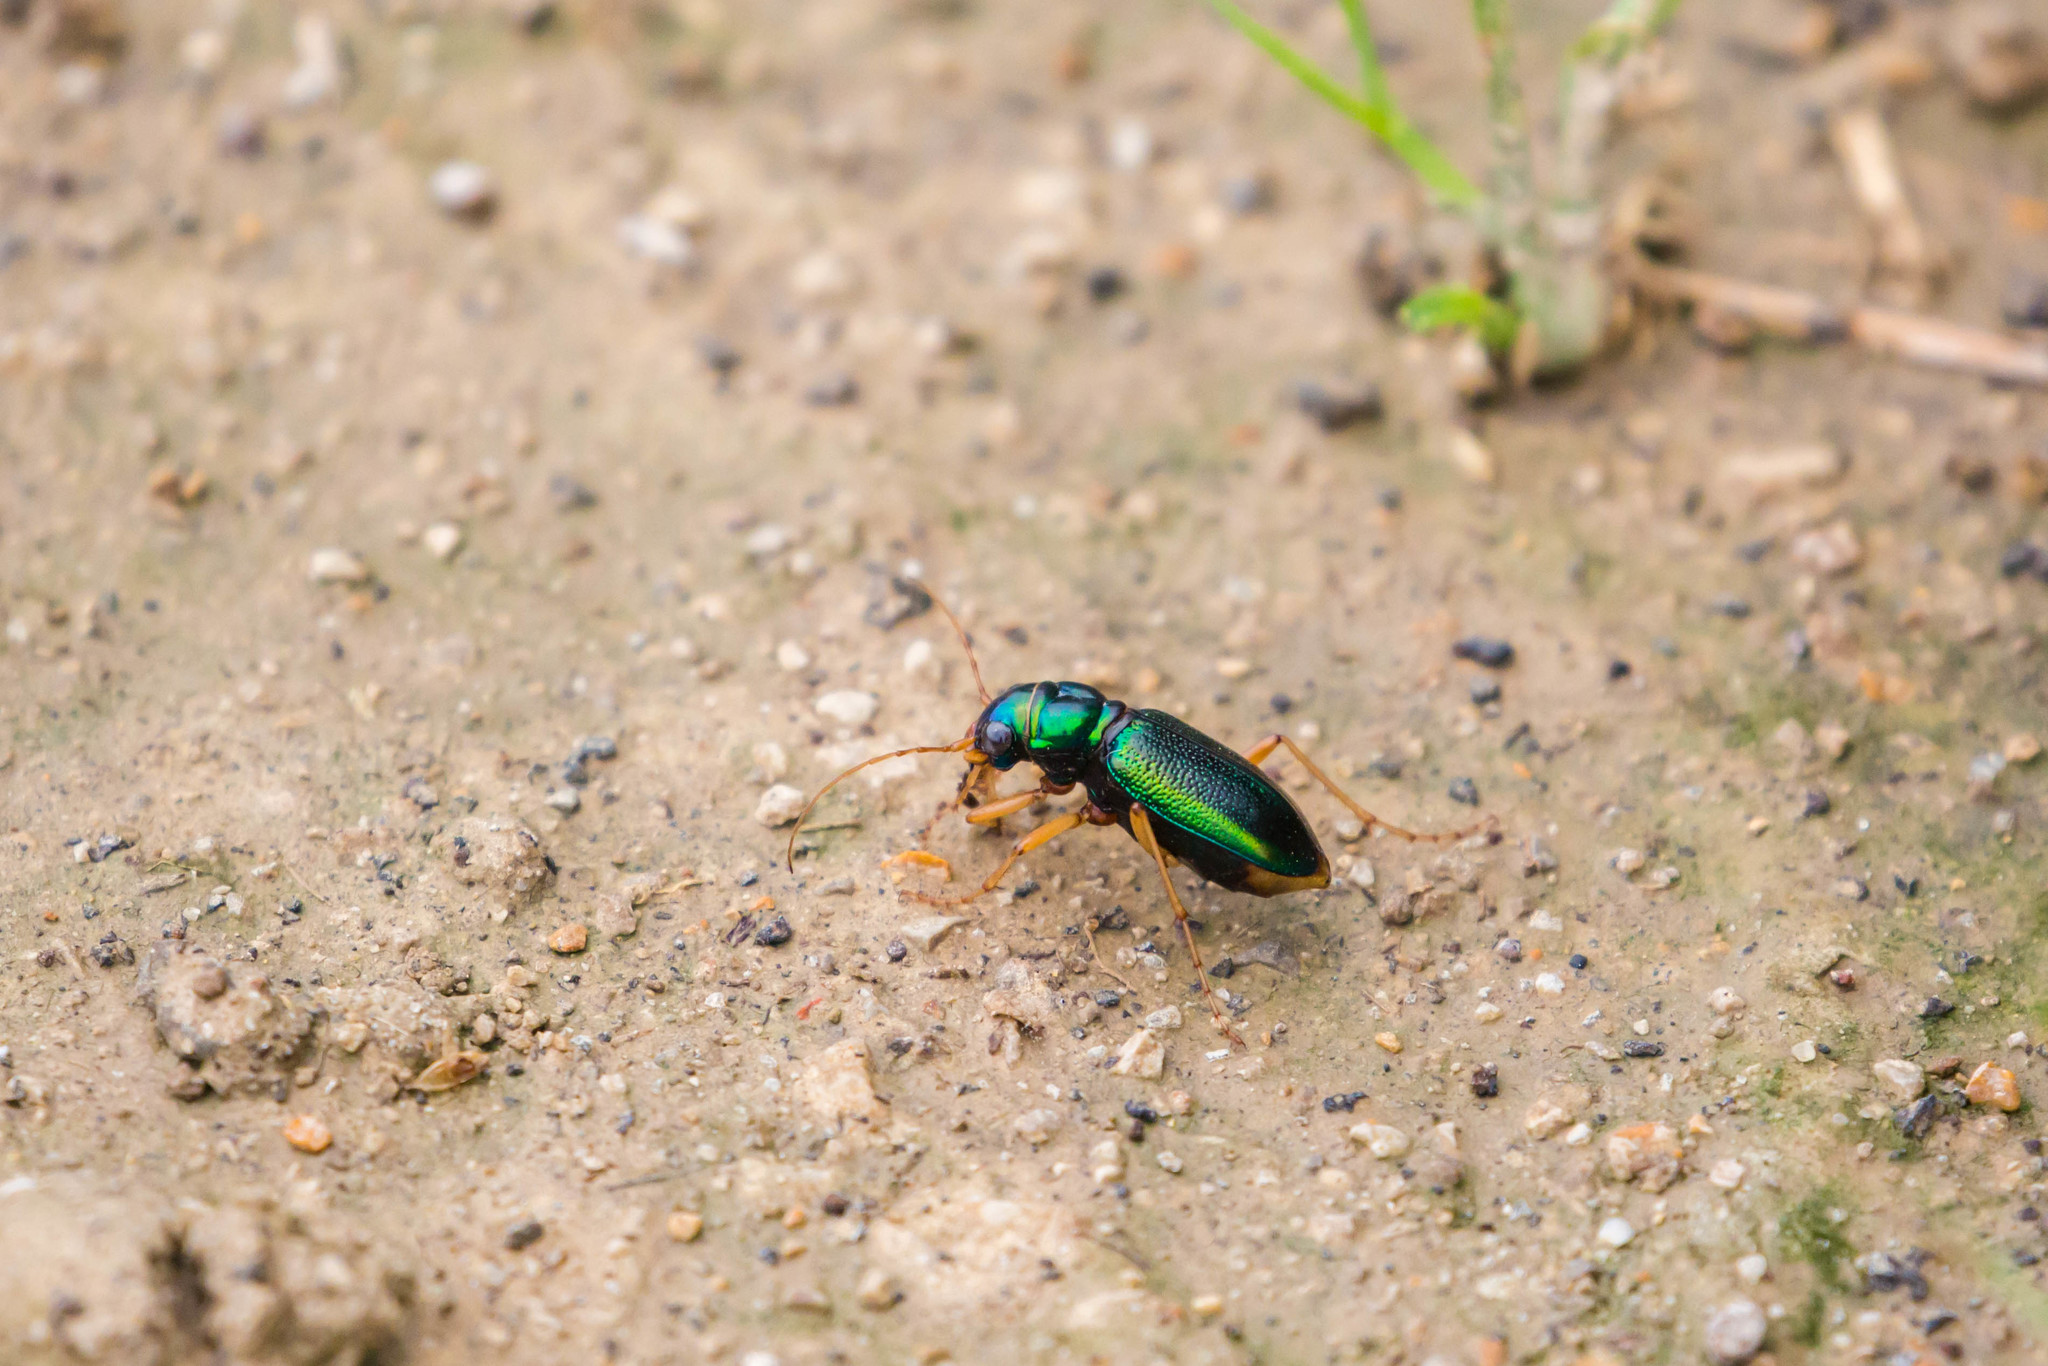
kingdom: Animalia
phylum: Arthropoda
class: Insecta
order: Coleoptera
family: Carabidae
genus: Tetracha
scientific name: Tetracha virginica
